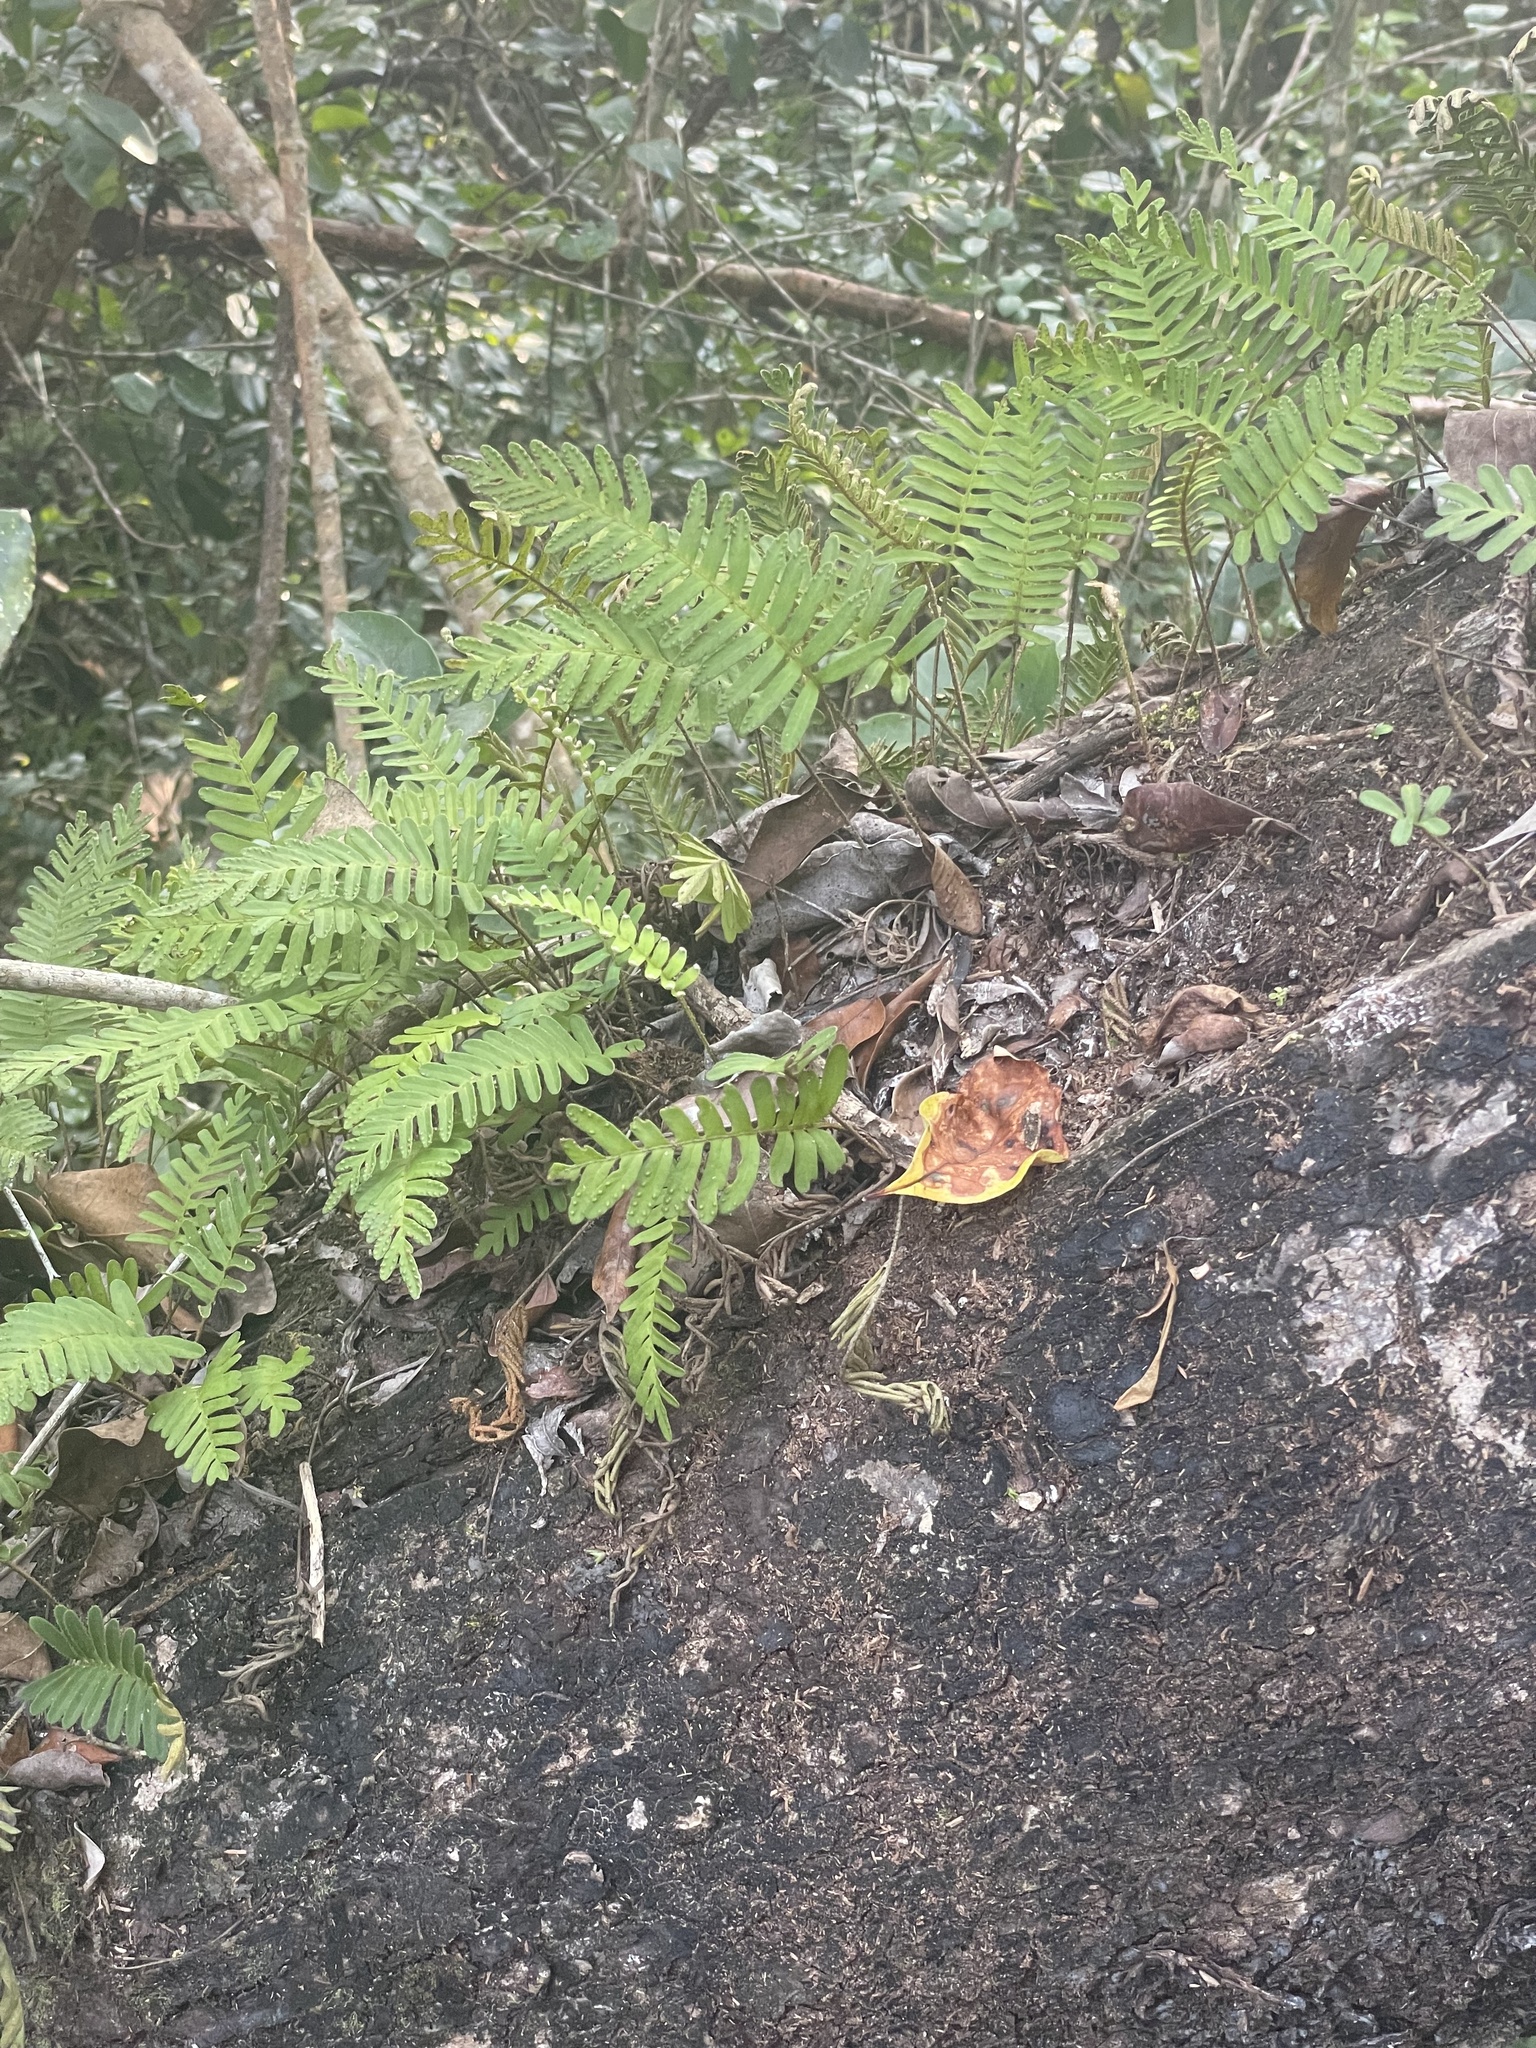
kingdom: Plantae
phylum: Tracheophyta
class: Polypodiopsida
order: Polypodiales
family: Polypodiaceae
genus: Pleopeltis
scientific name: Pleopeltis michauxiana
